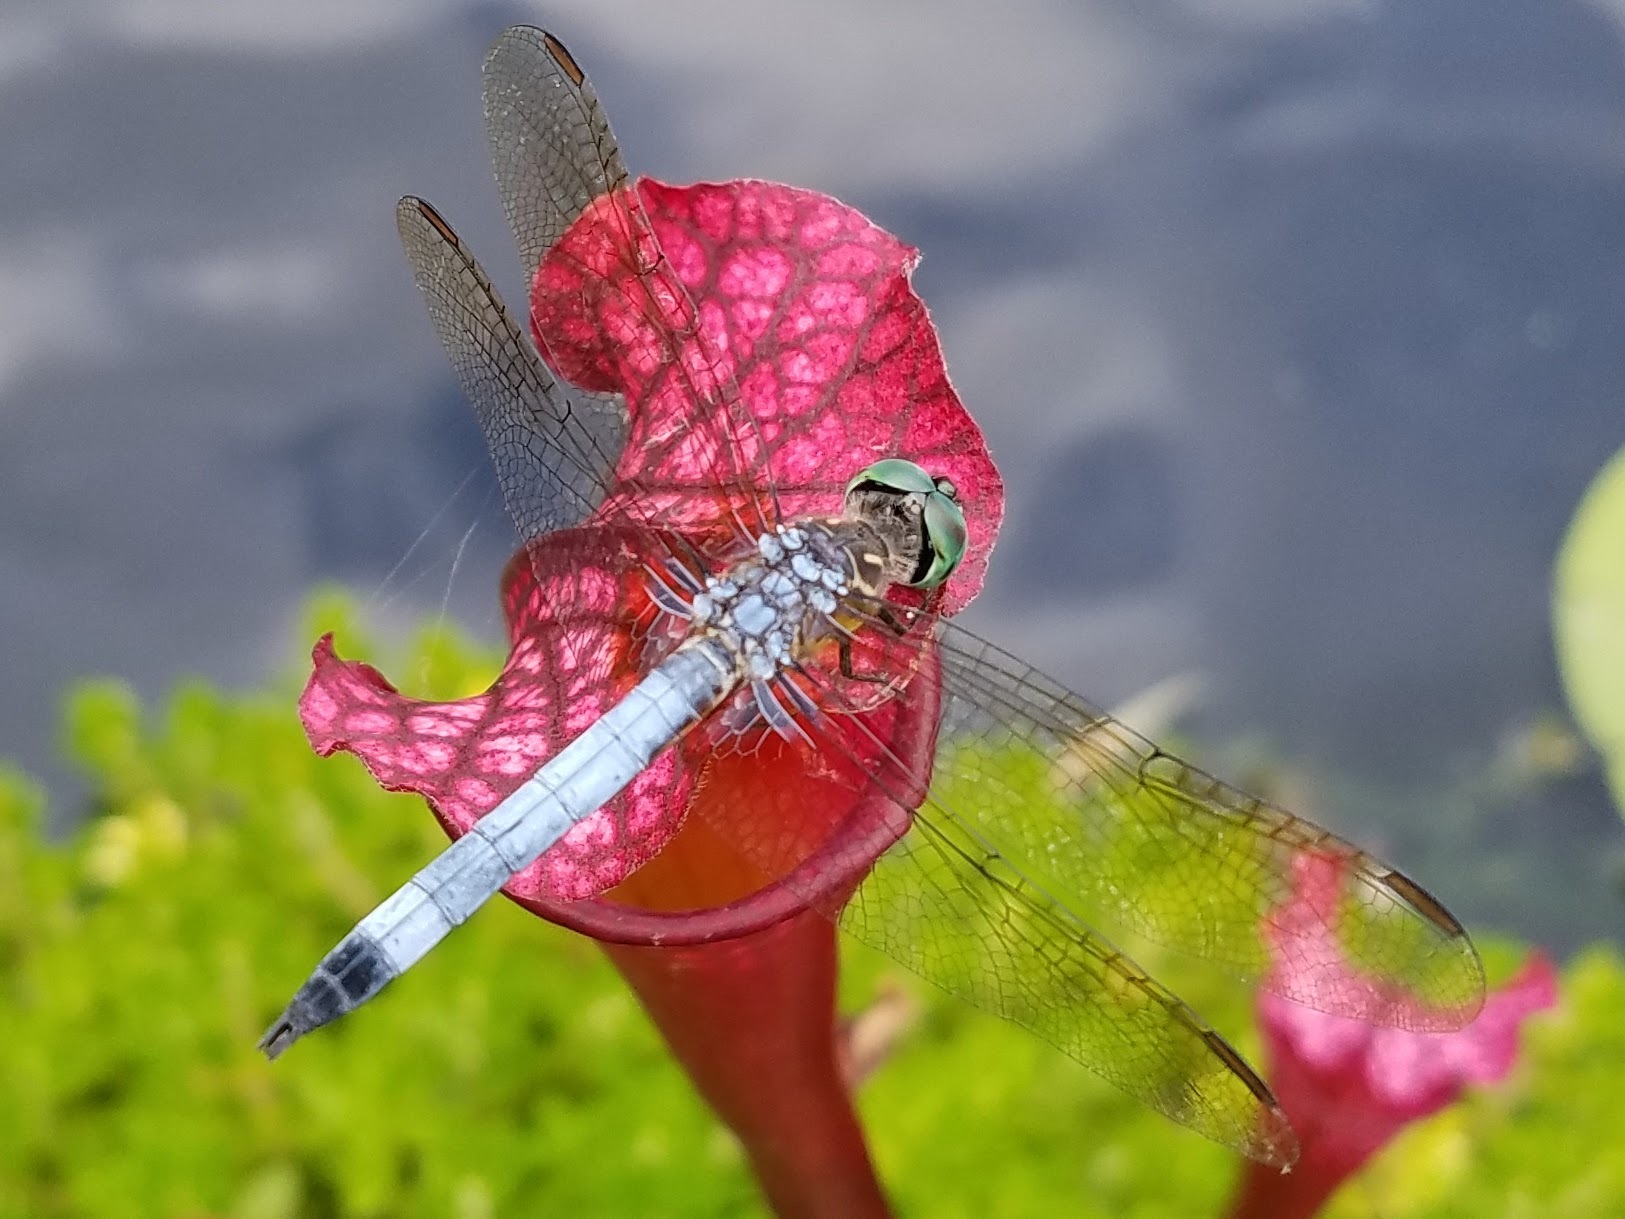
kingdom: Animalia
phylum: Arthropoda
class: Insecta
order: Odonata
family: Libellulidae
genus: Pachydiplax
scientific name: Pachydiplax longipennis
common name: Blue dasher
